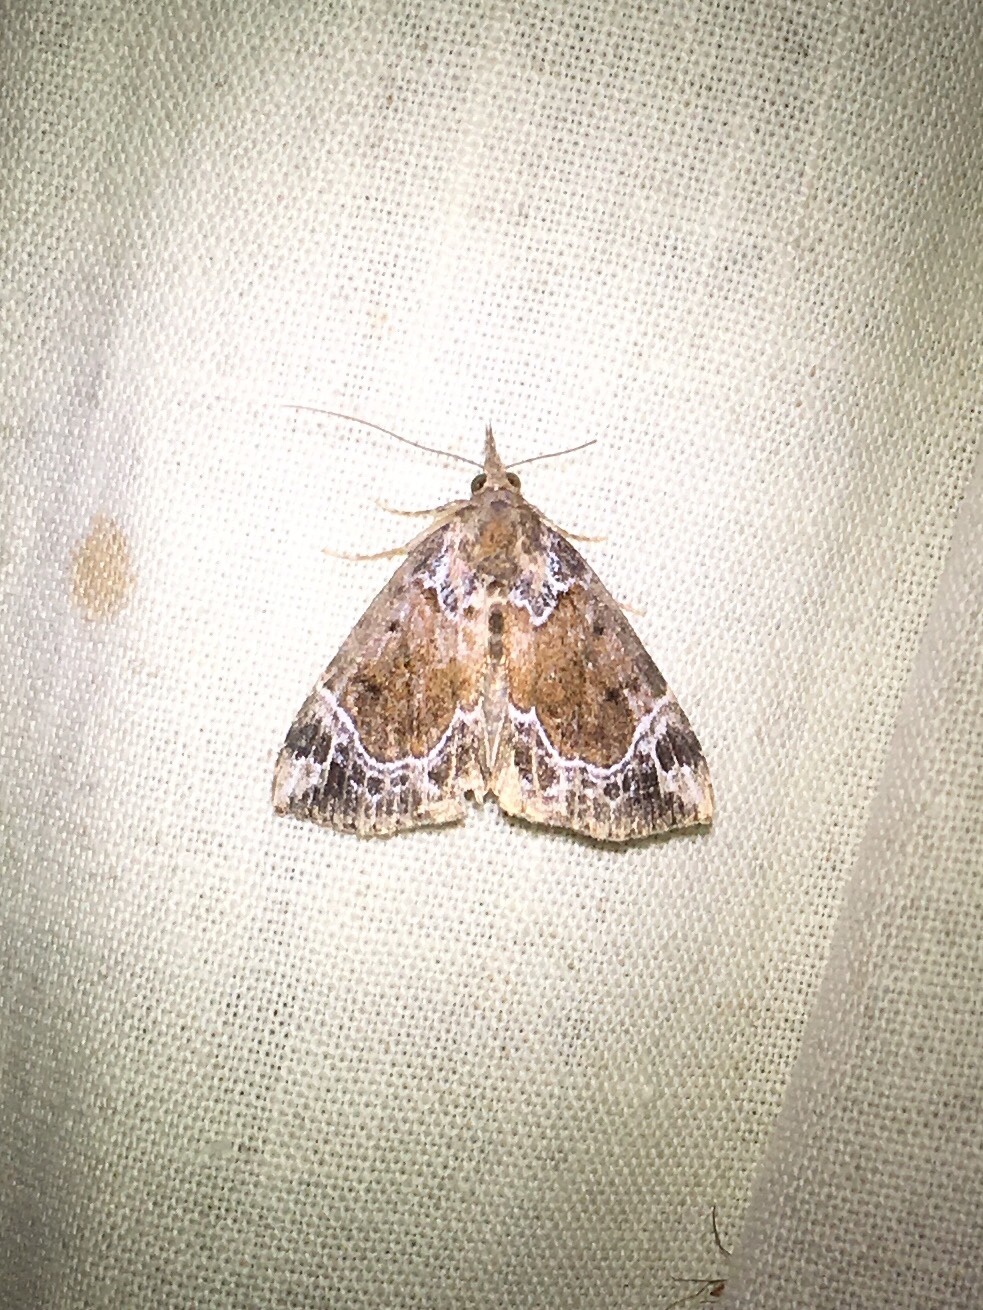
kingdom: Animalia
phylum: Arthropoda
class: Insecta
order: Lepidoptera
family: Erebidae
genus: Hypena
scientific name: Hypena abalienalis
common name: White-lined snout
